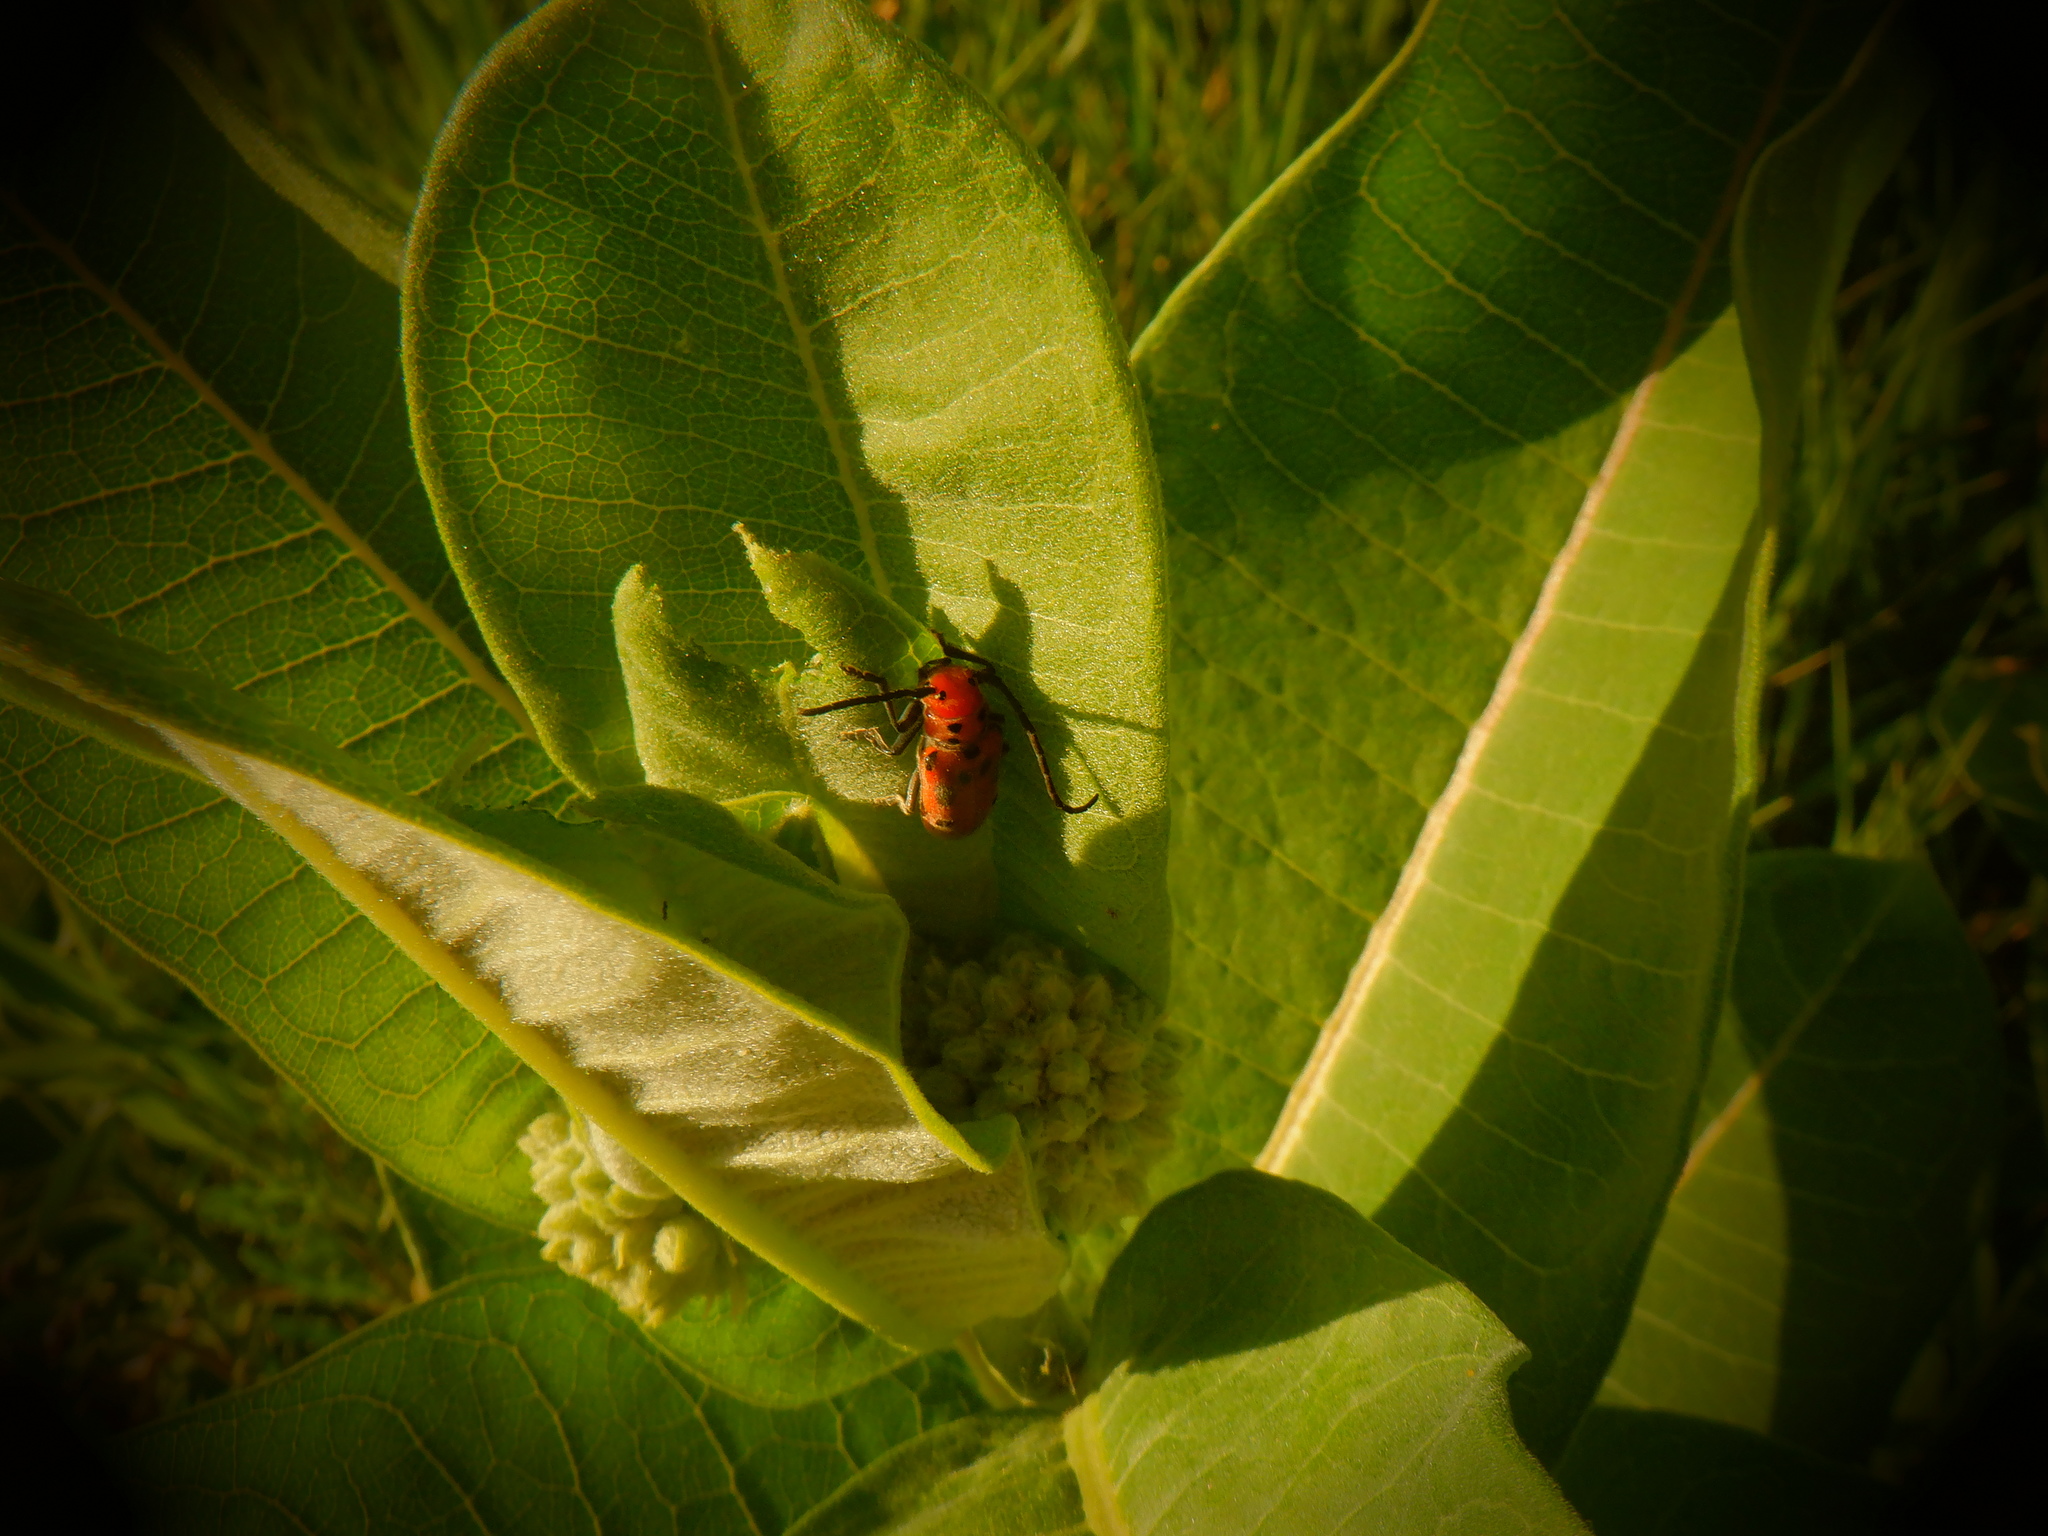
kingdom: Animalia
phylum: Arthropoda
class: Insecta
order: Coleoptera
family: Cerambycidae
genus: Tetraopes
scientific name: Tetraopes tetrophthalmus
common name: Red milkweed beetle
